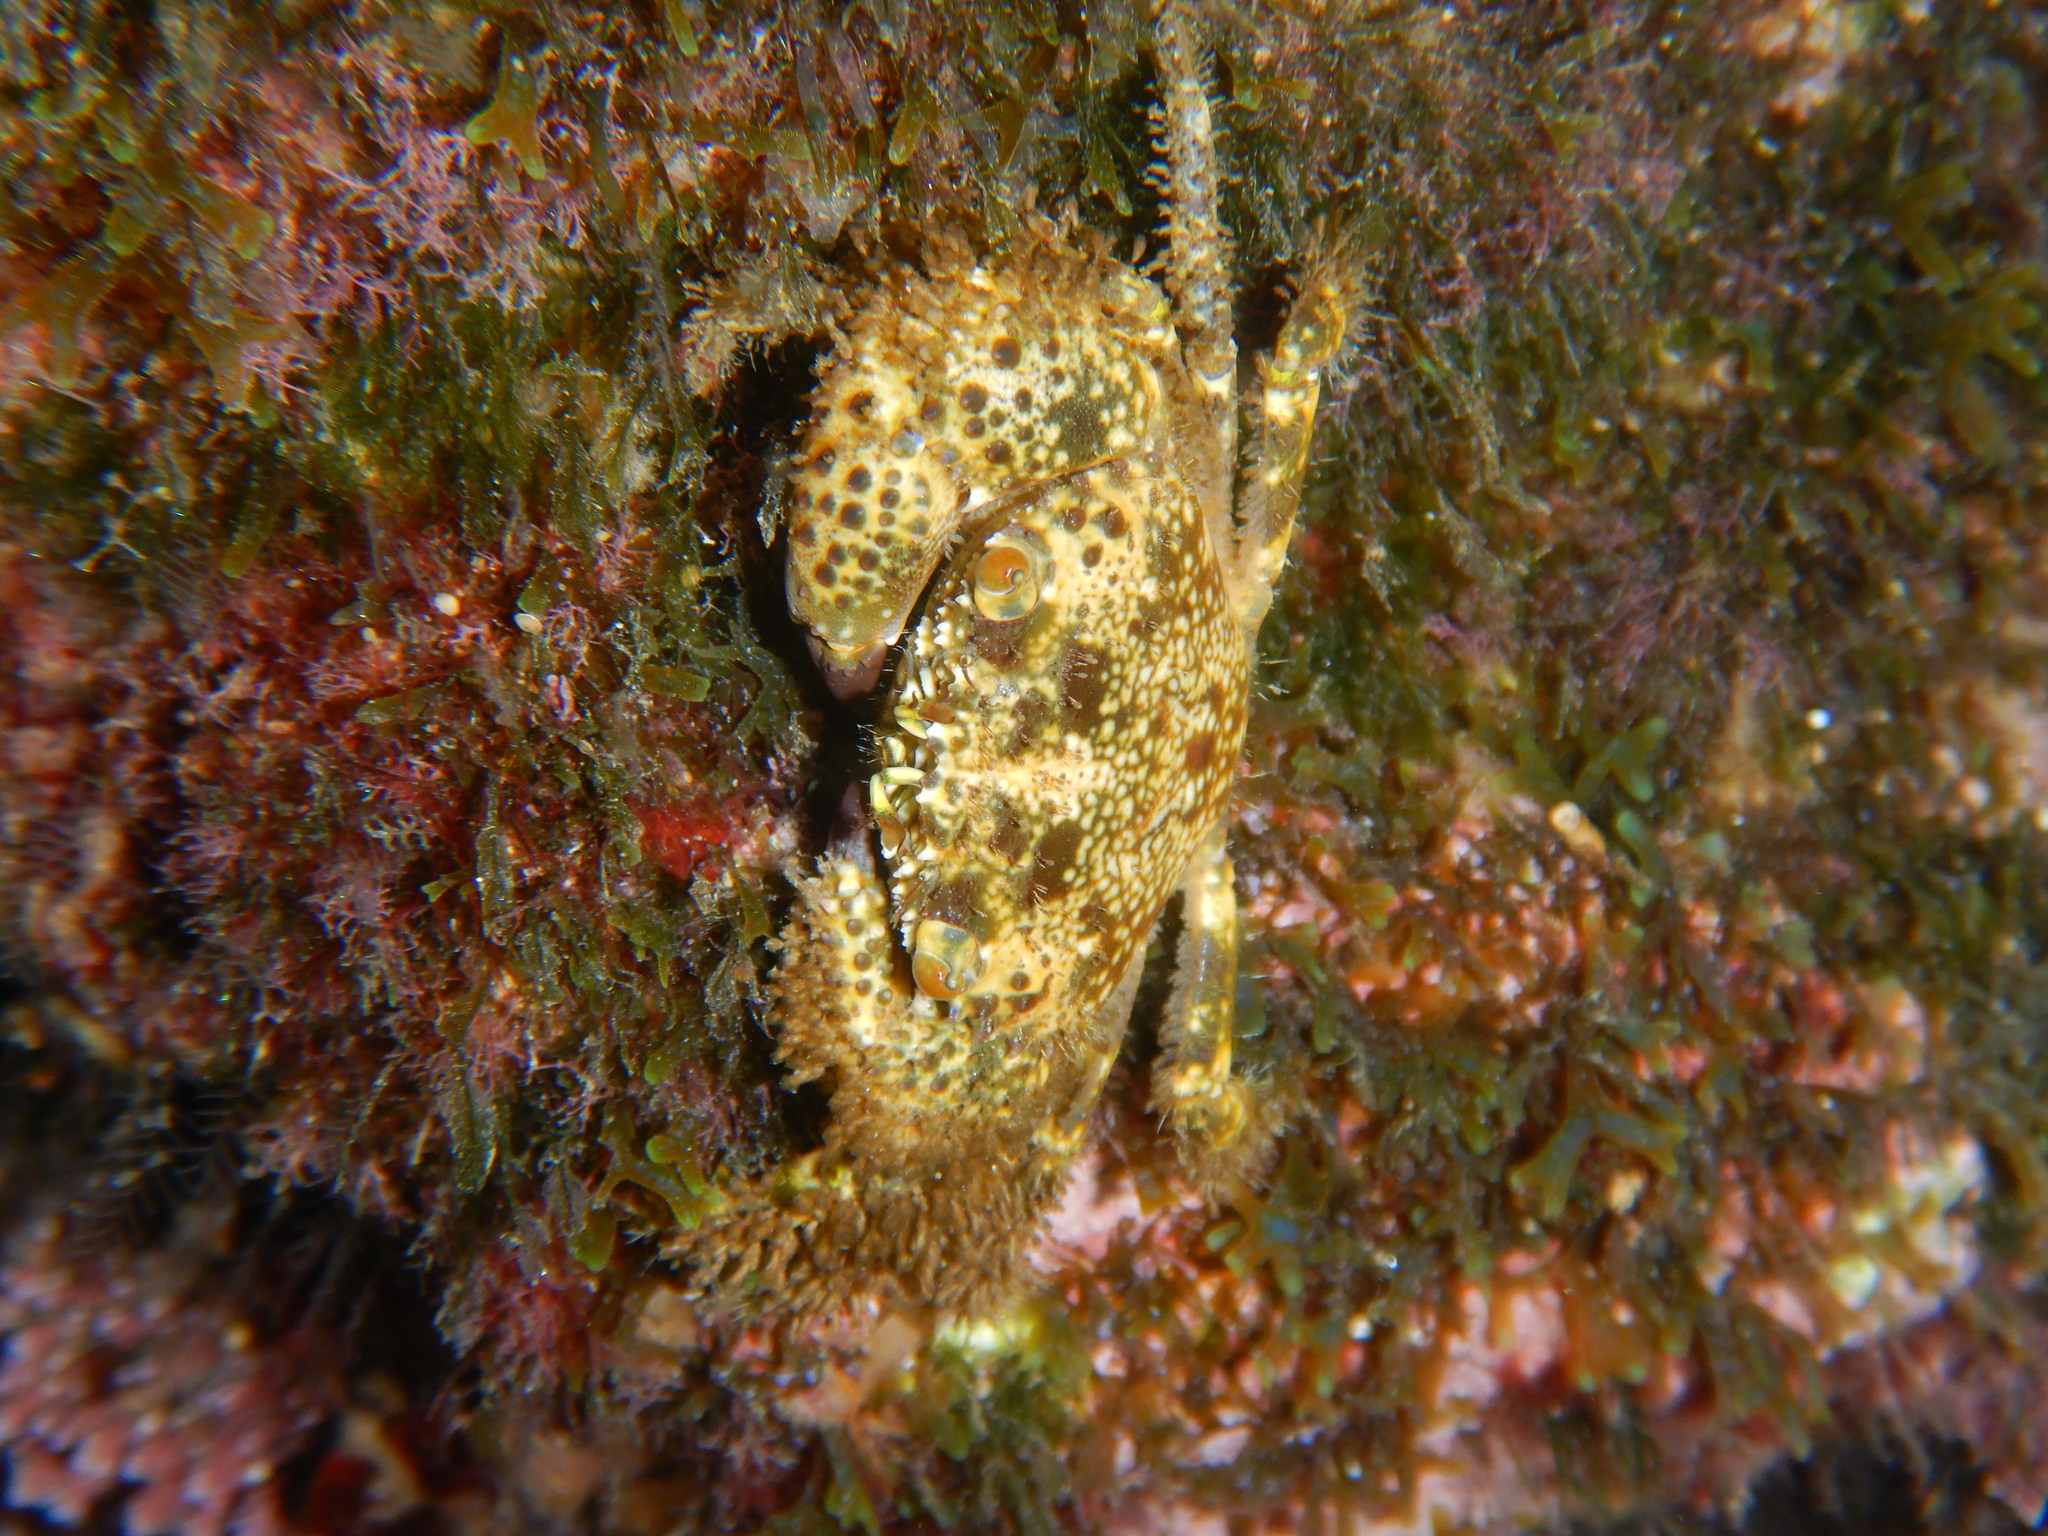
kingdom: Animalia
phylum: Arthropoda
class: Malacostraca
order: Decapoda
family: Eriphiidae
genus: Eriphia
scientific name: Eriphia verrucosa
